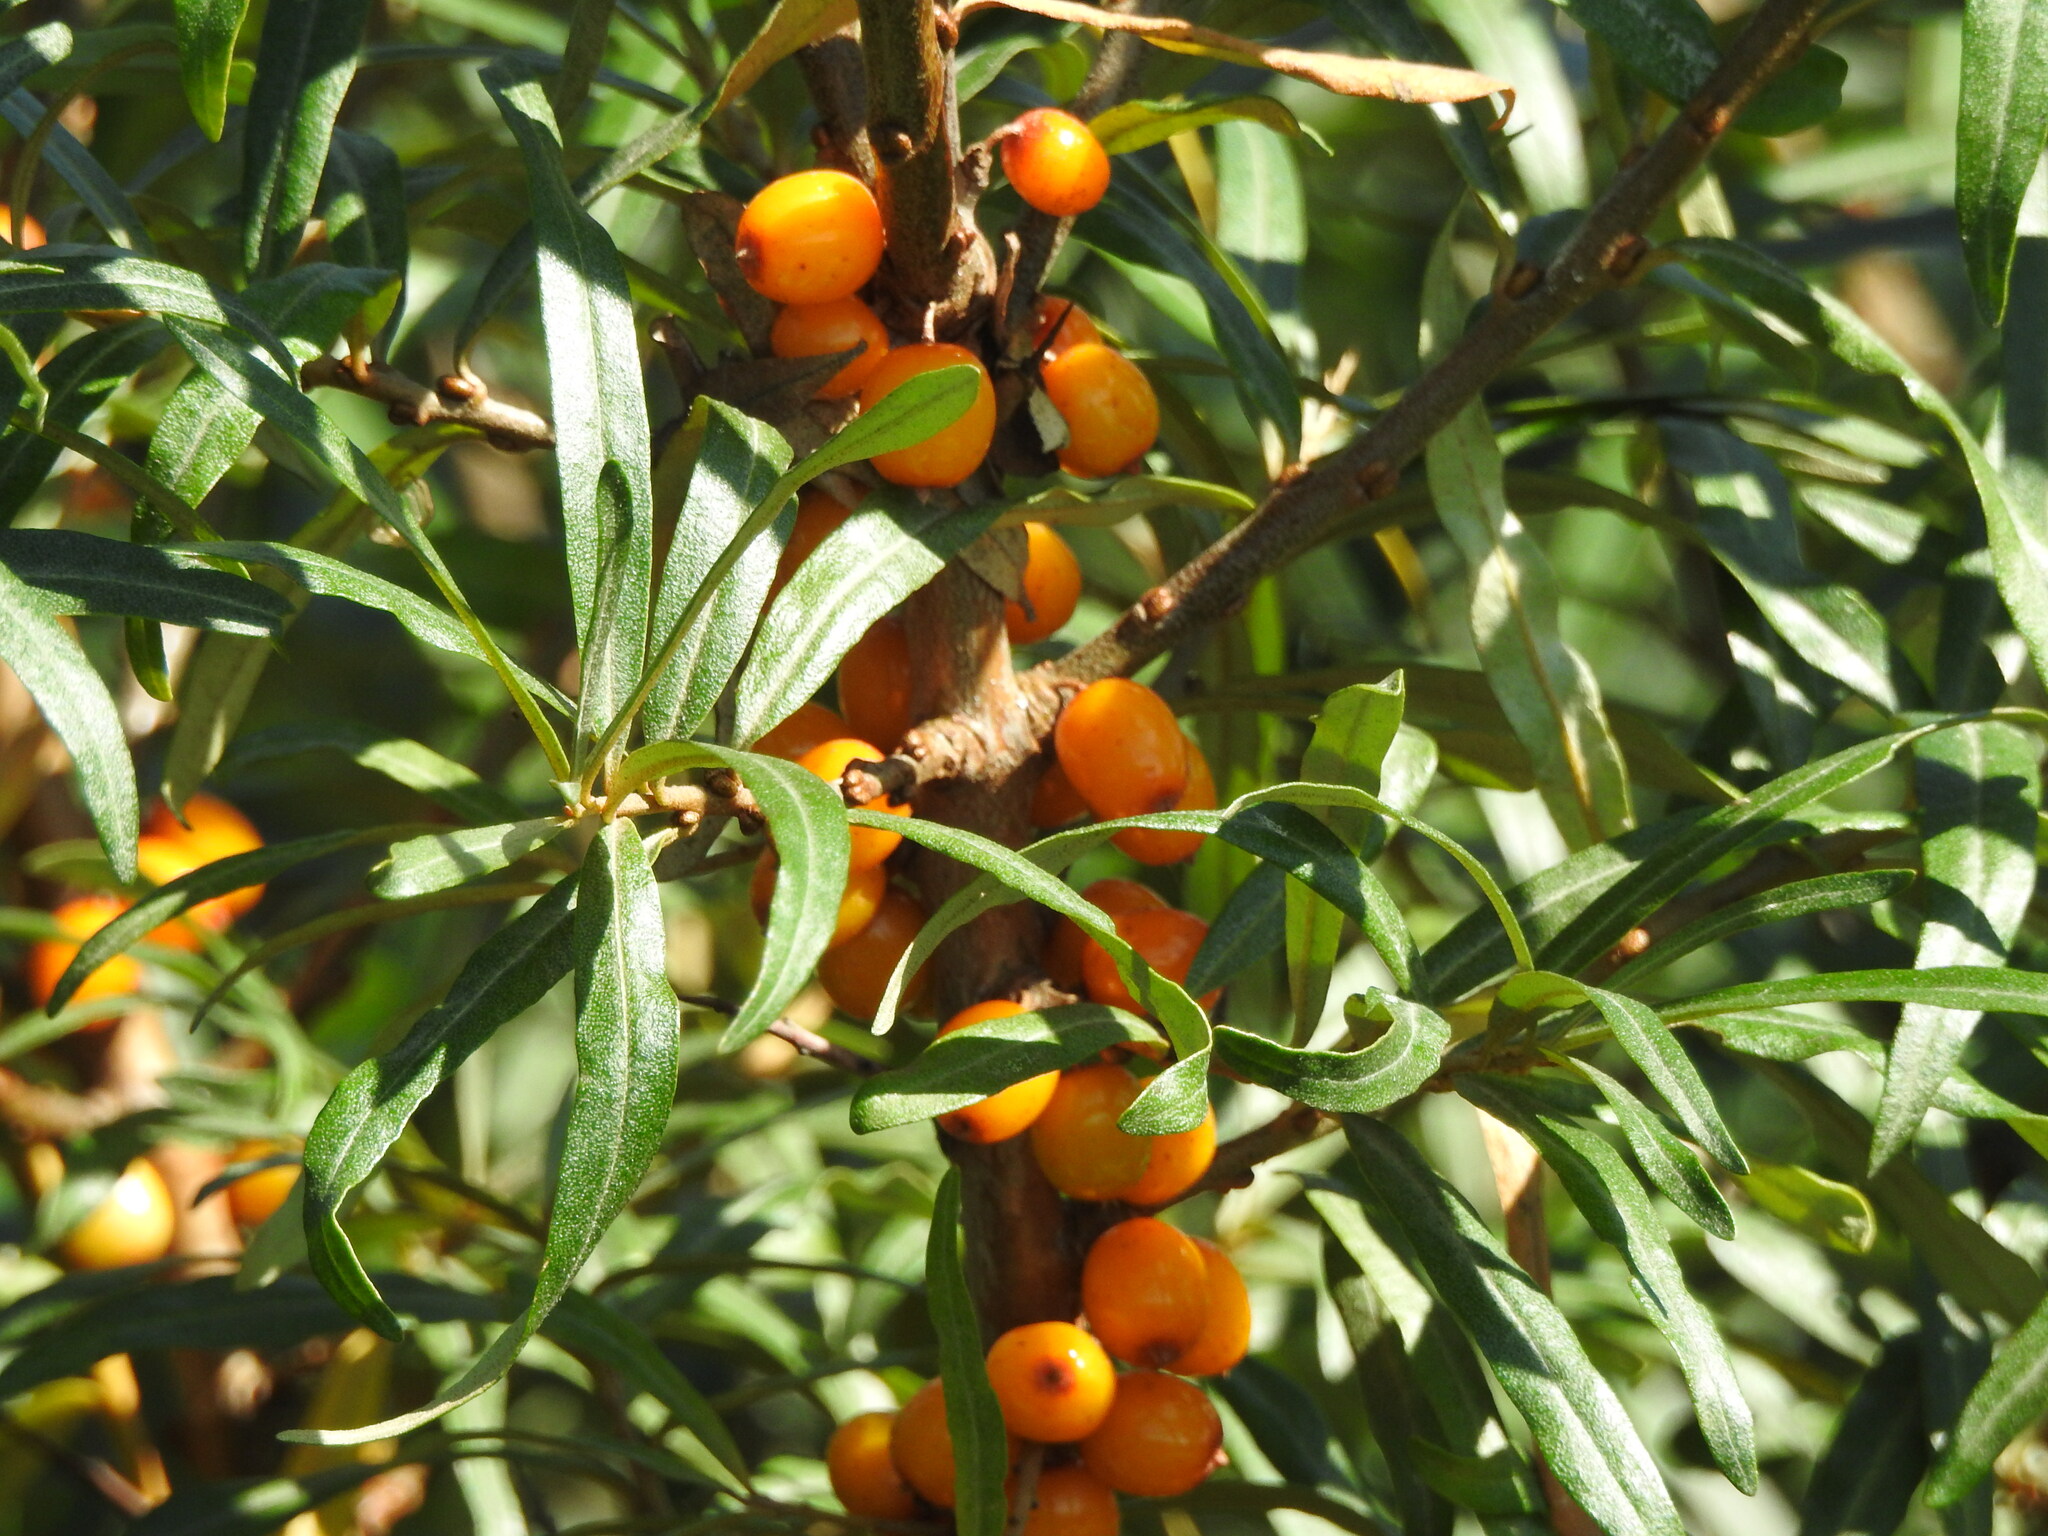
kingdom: Plantae
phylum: Tracheophyta
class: Magnoliopsida
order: Rosales
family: Elaeagnaceae
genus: Hippophae
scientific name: Hippophae rhamnoides
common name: Sea-buckthorn
